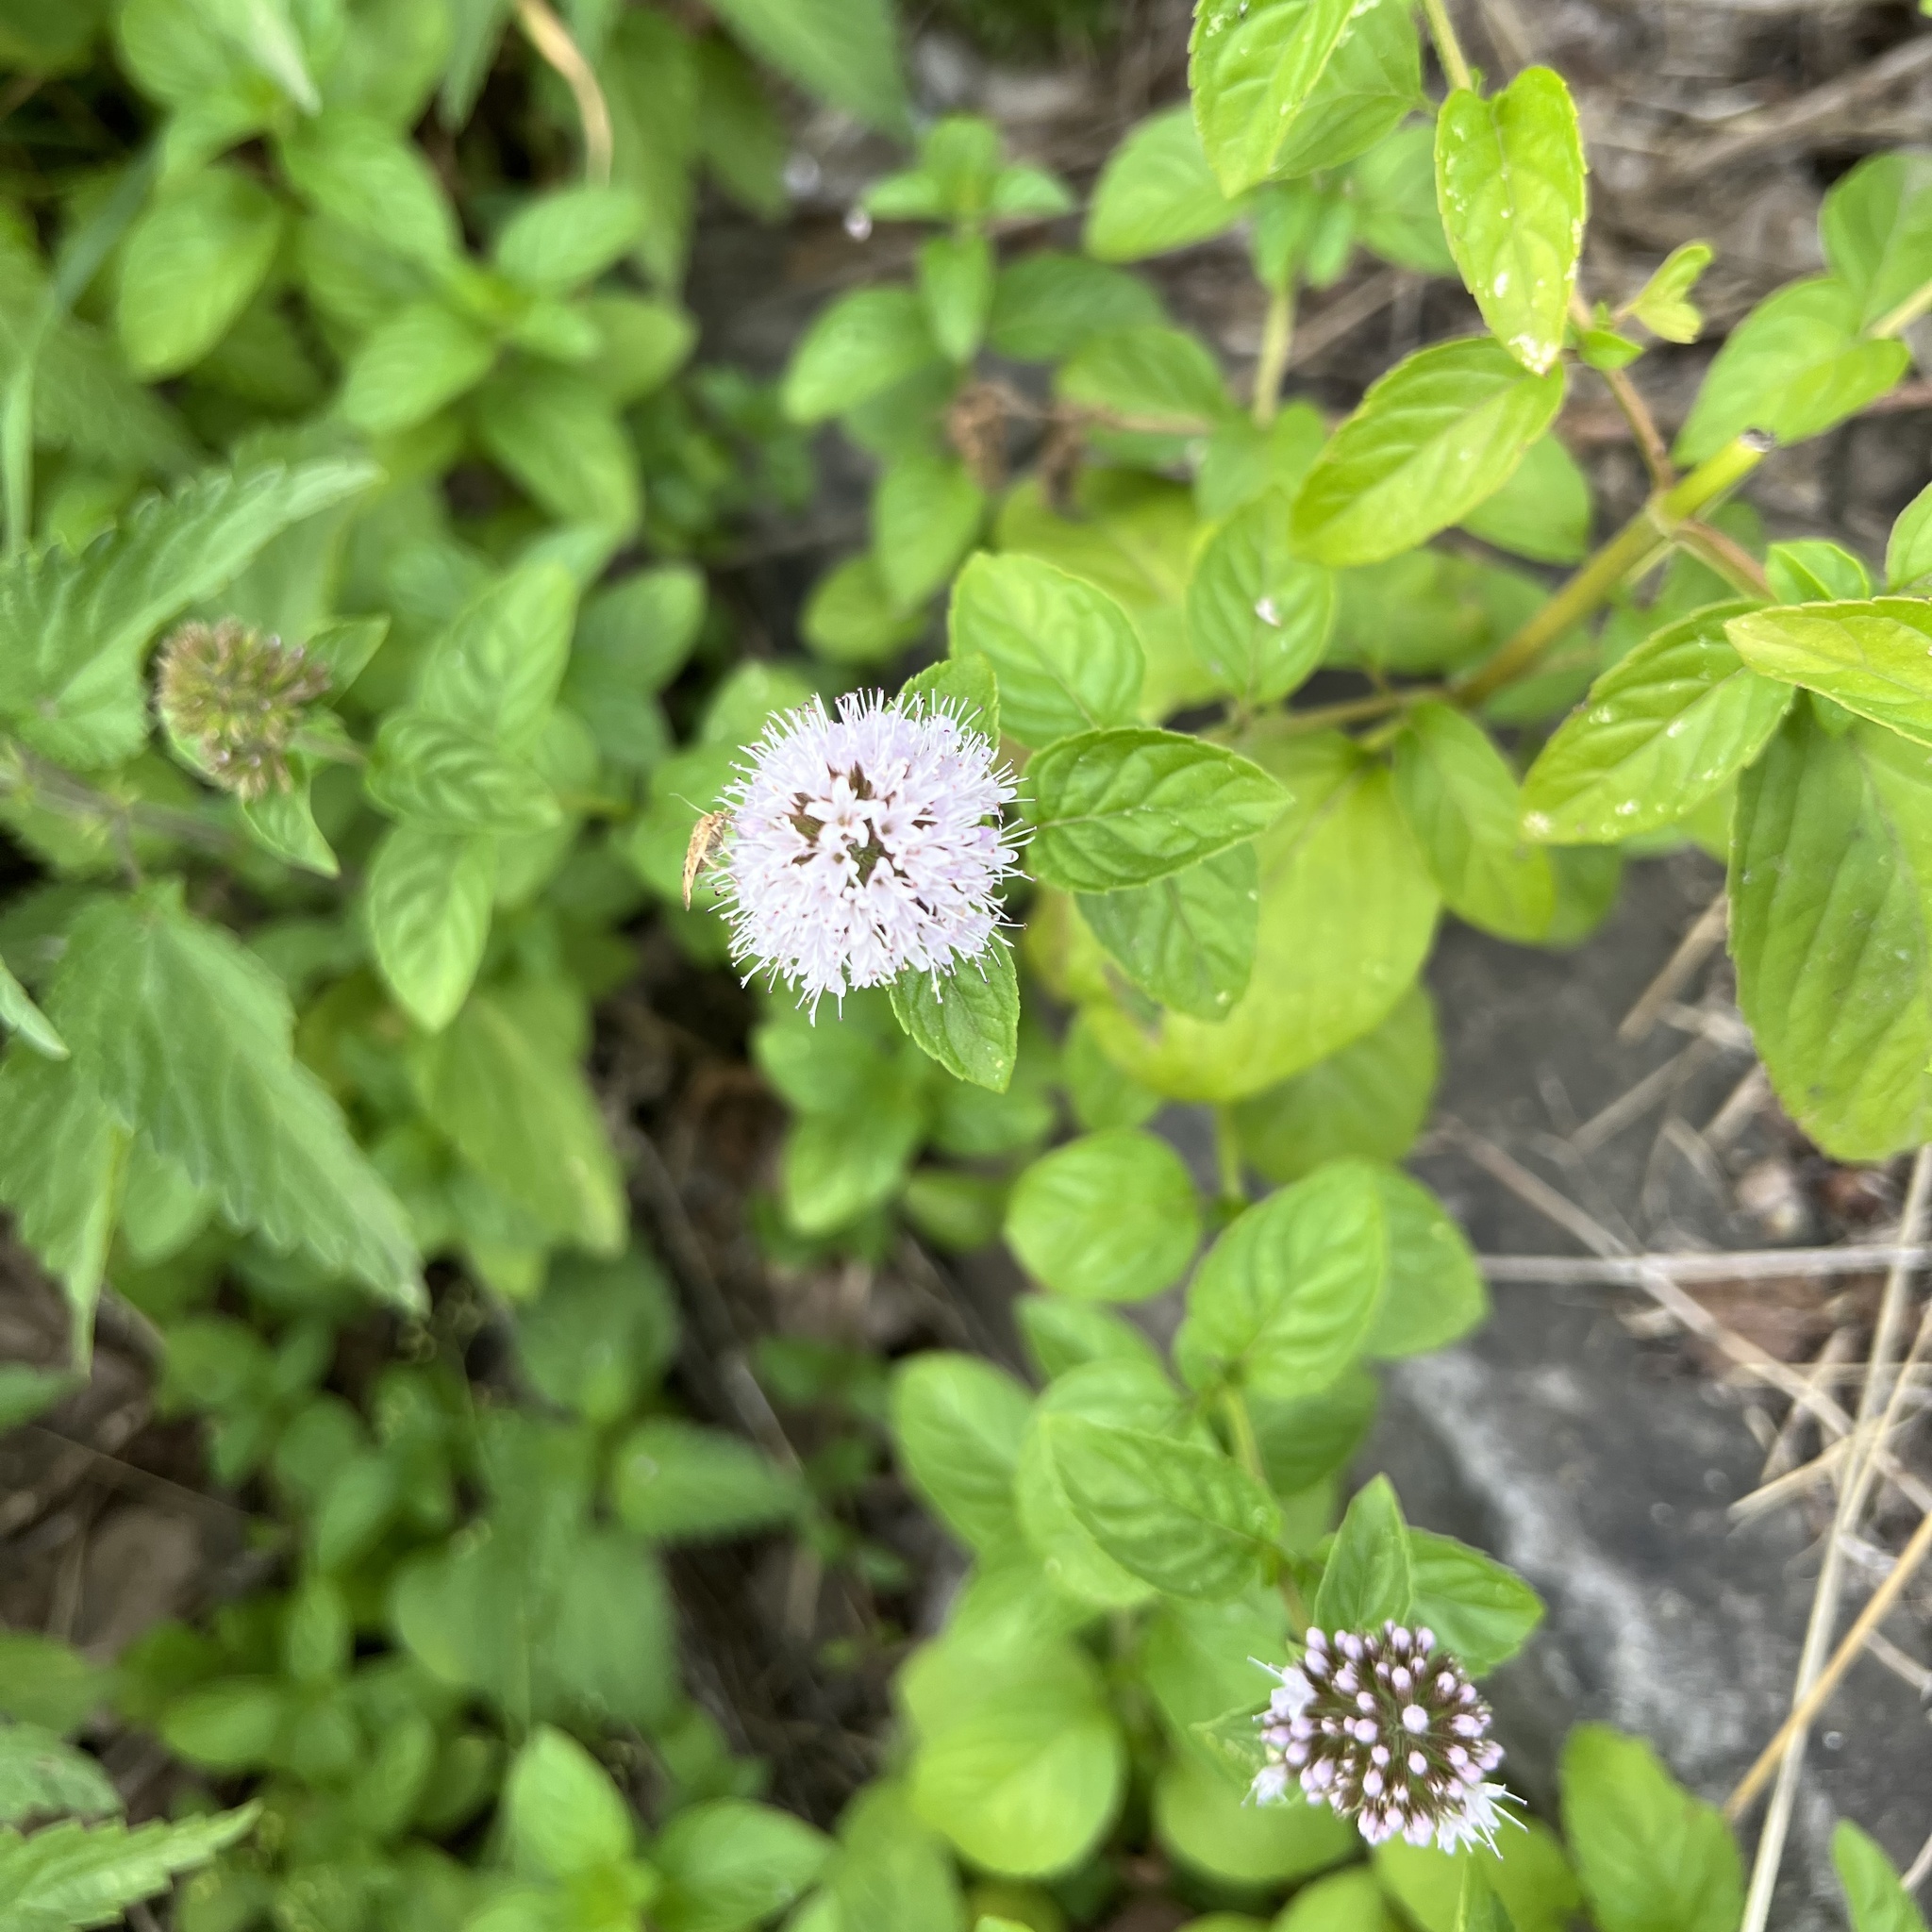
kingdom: Plantae
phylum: Tracheophyta
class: Magnoliopsida
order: Lamiales
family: Lamiaceae
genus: Mentha
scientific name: Mentha aquatica
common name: Water mint
